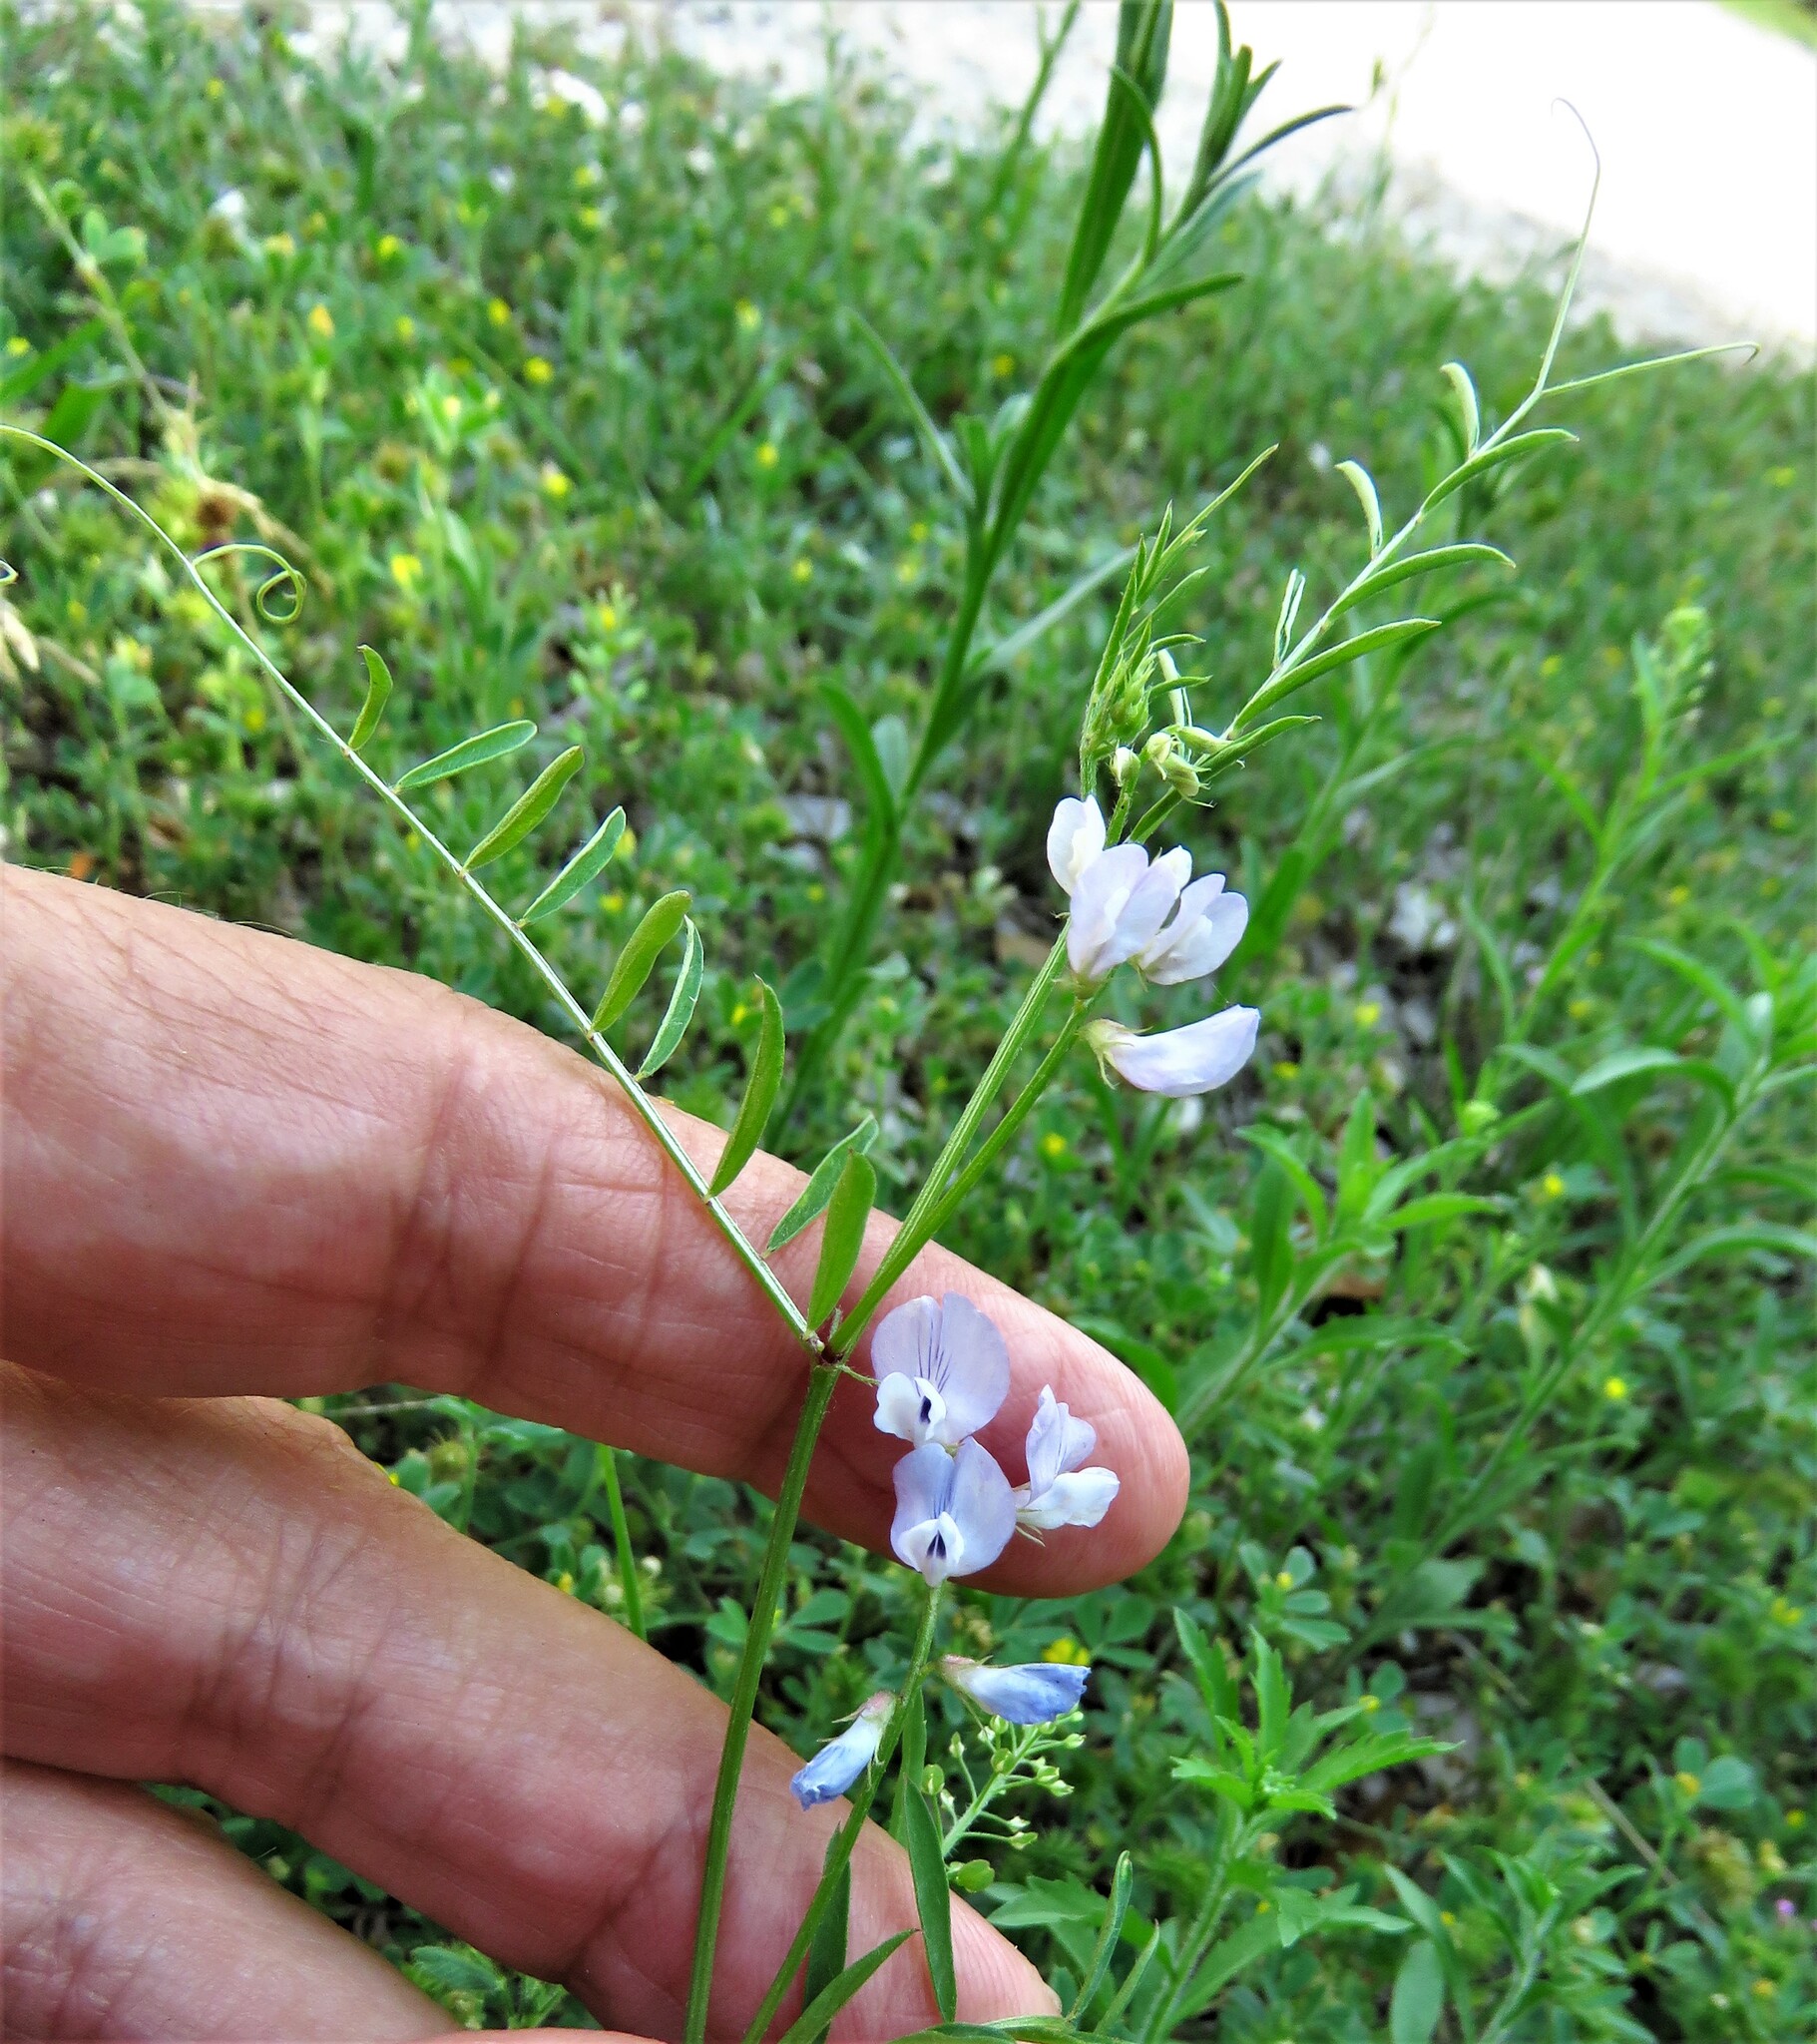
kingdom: Plantae
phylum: Tracheophyta
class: Magnoliopsida
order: Fabales
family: Fabaceae
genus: Vicia
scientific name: Vicia ludoviciana
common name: Louisiana vetch
